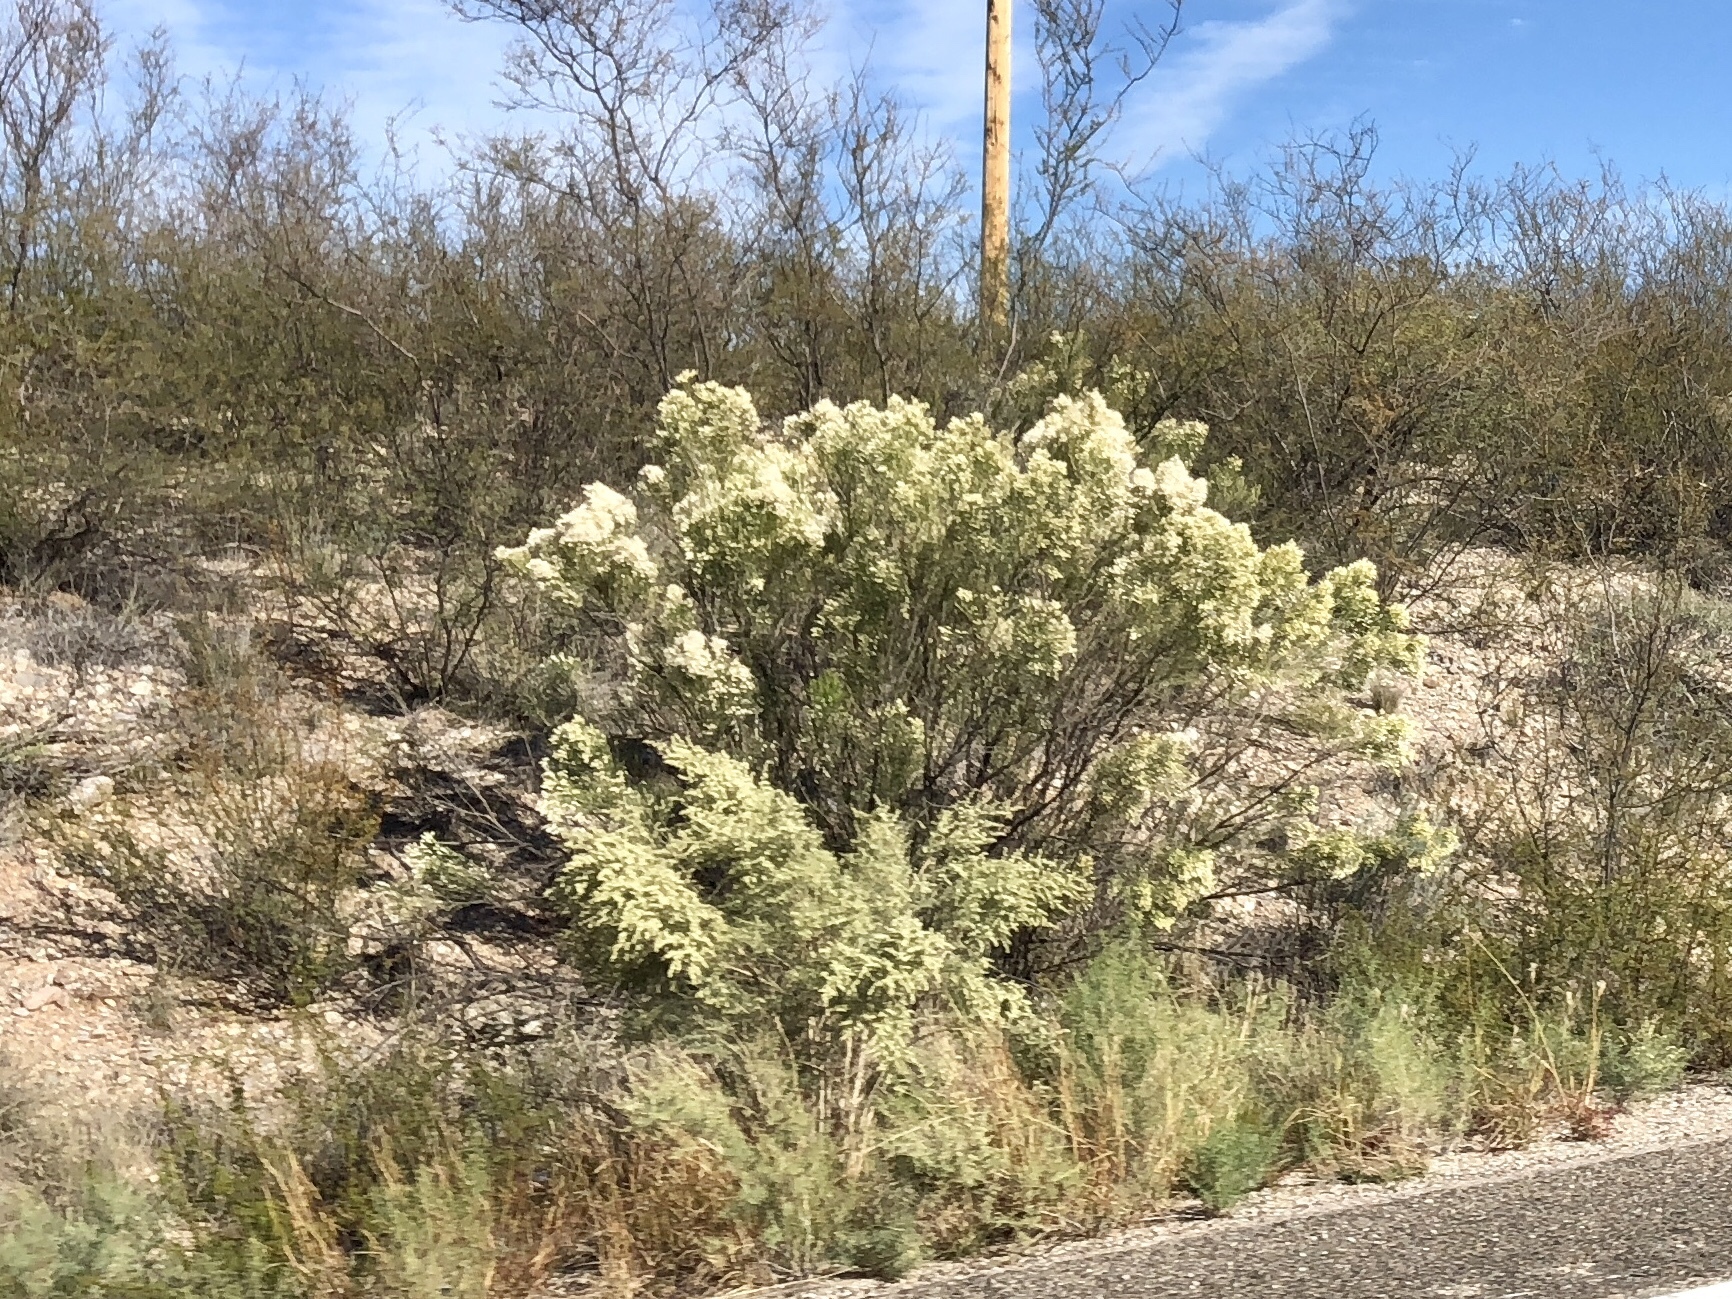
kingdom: Plantae
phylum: Tracheophyta
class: Magnoliopsida
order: Asterales
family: Asteraceae
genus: Baccharis
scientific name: Baccharis sarothroides
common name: Desert-broom
